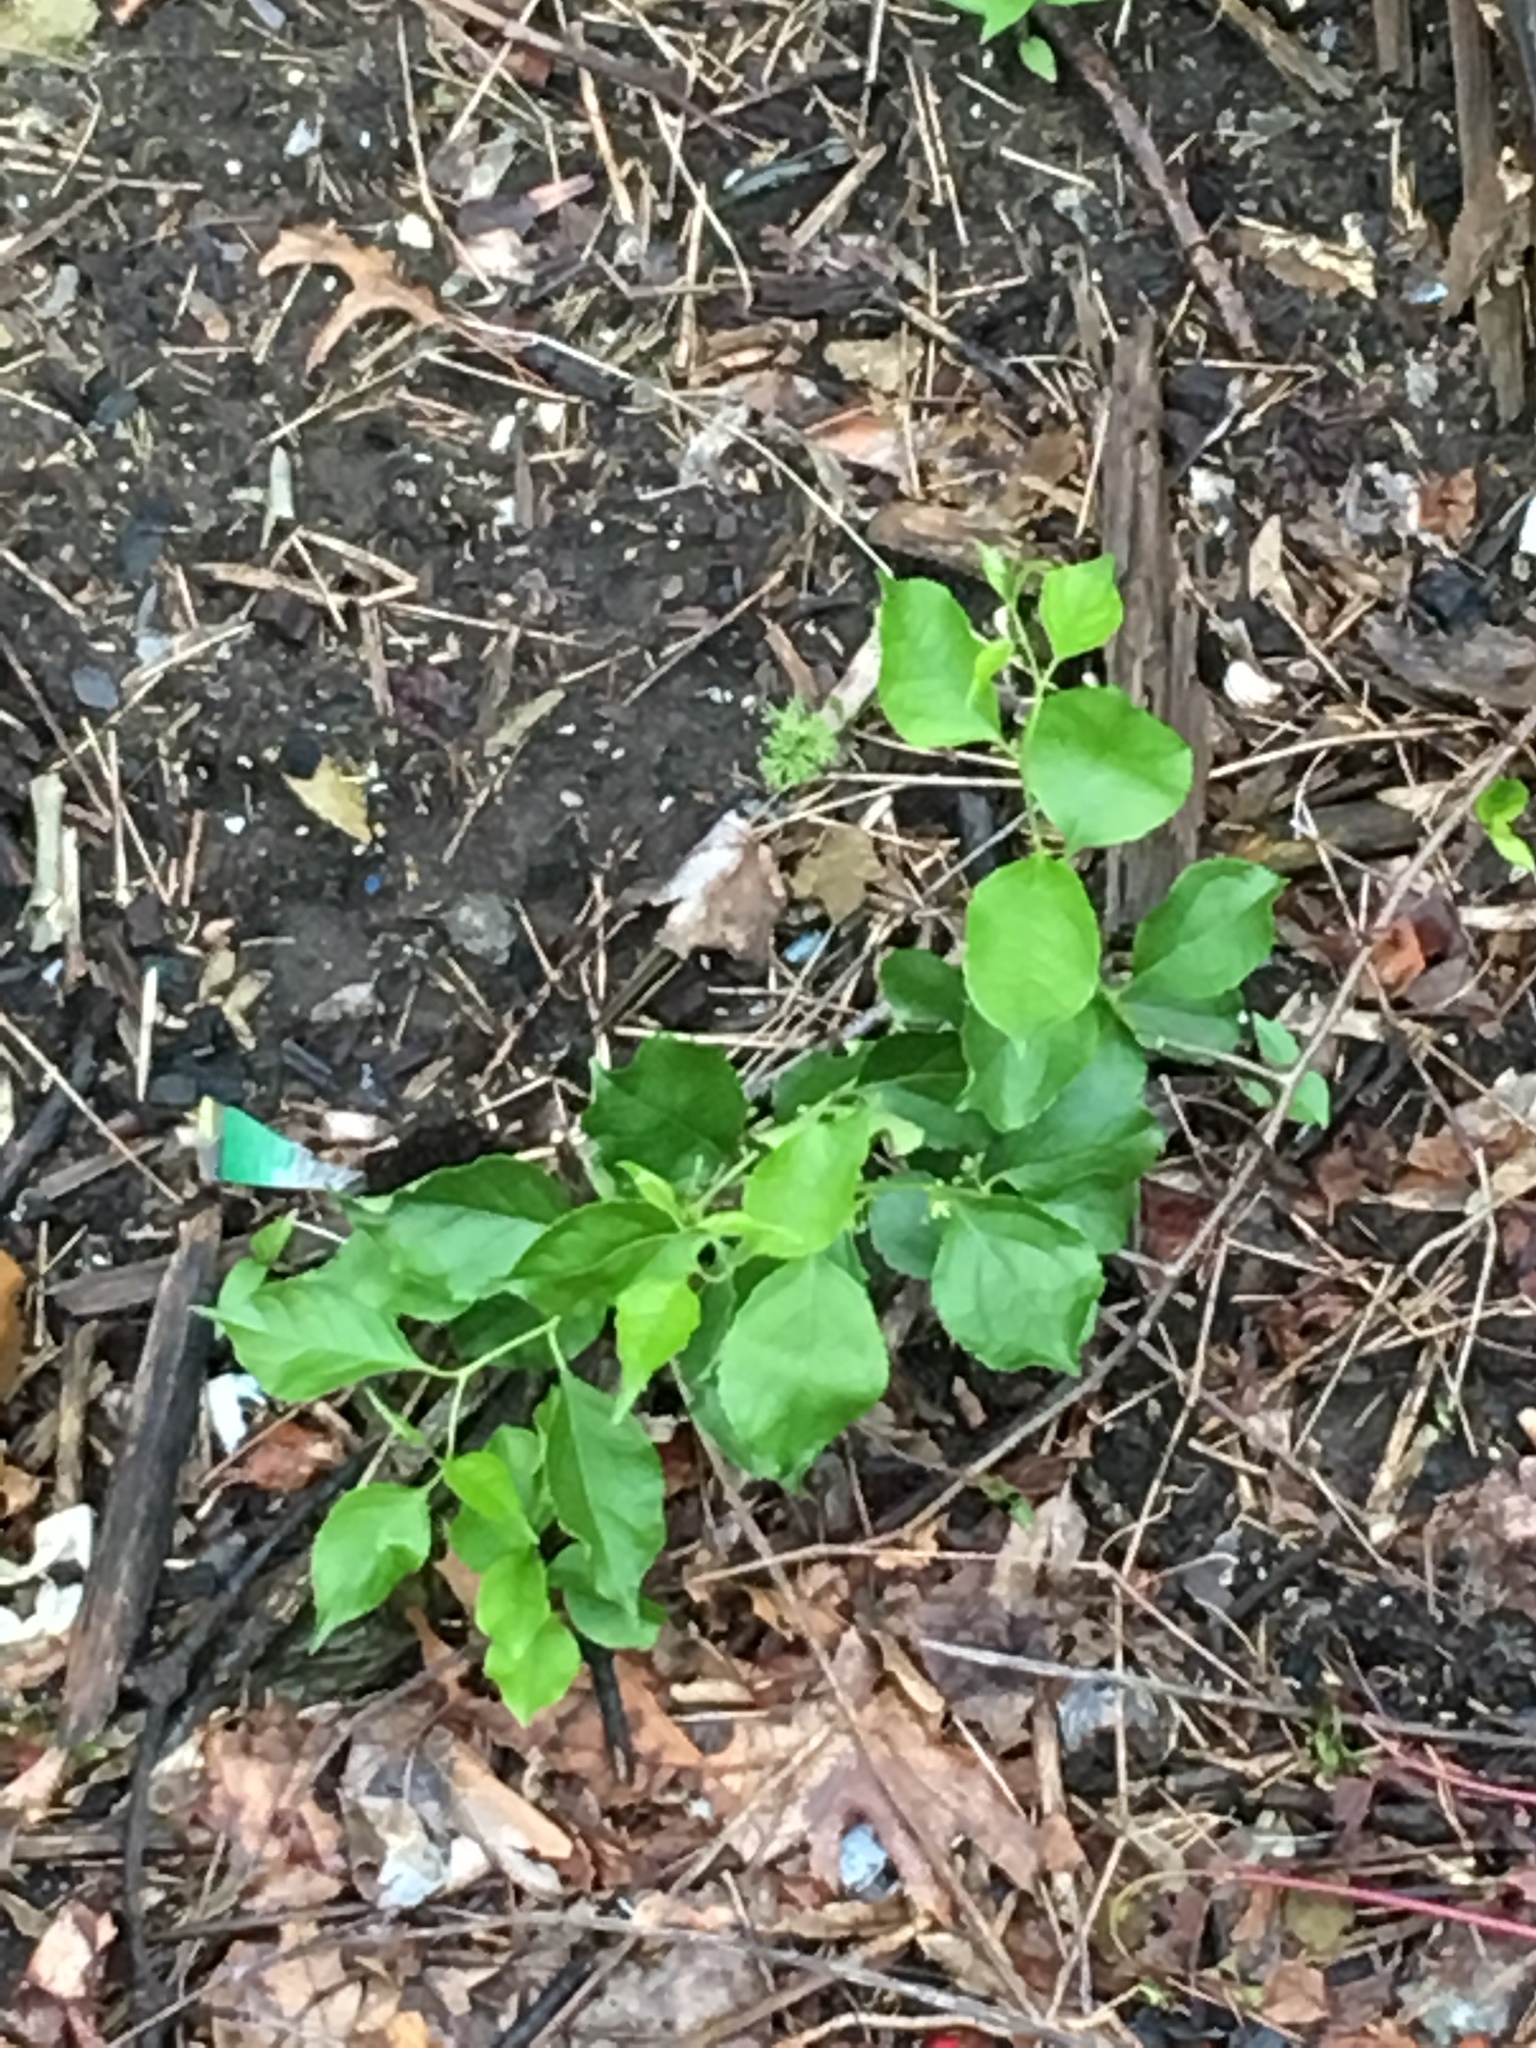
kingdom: Plantae
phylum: Tracheophyta
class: Magnoliopsida
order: Celastrales
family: Celastraceae
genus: Celastrus
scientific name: Celastrus orbiculatus
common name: Oriental bittersweet
